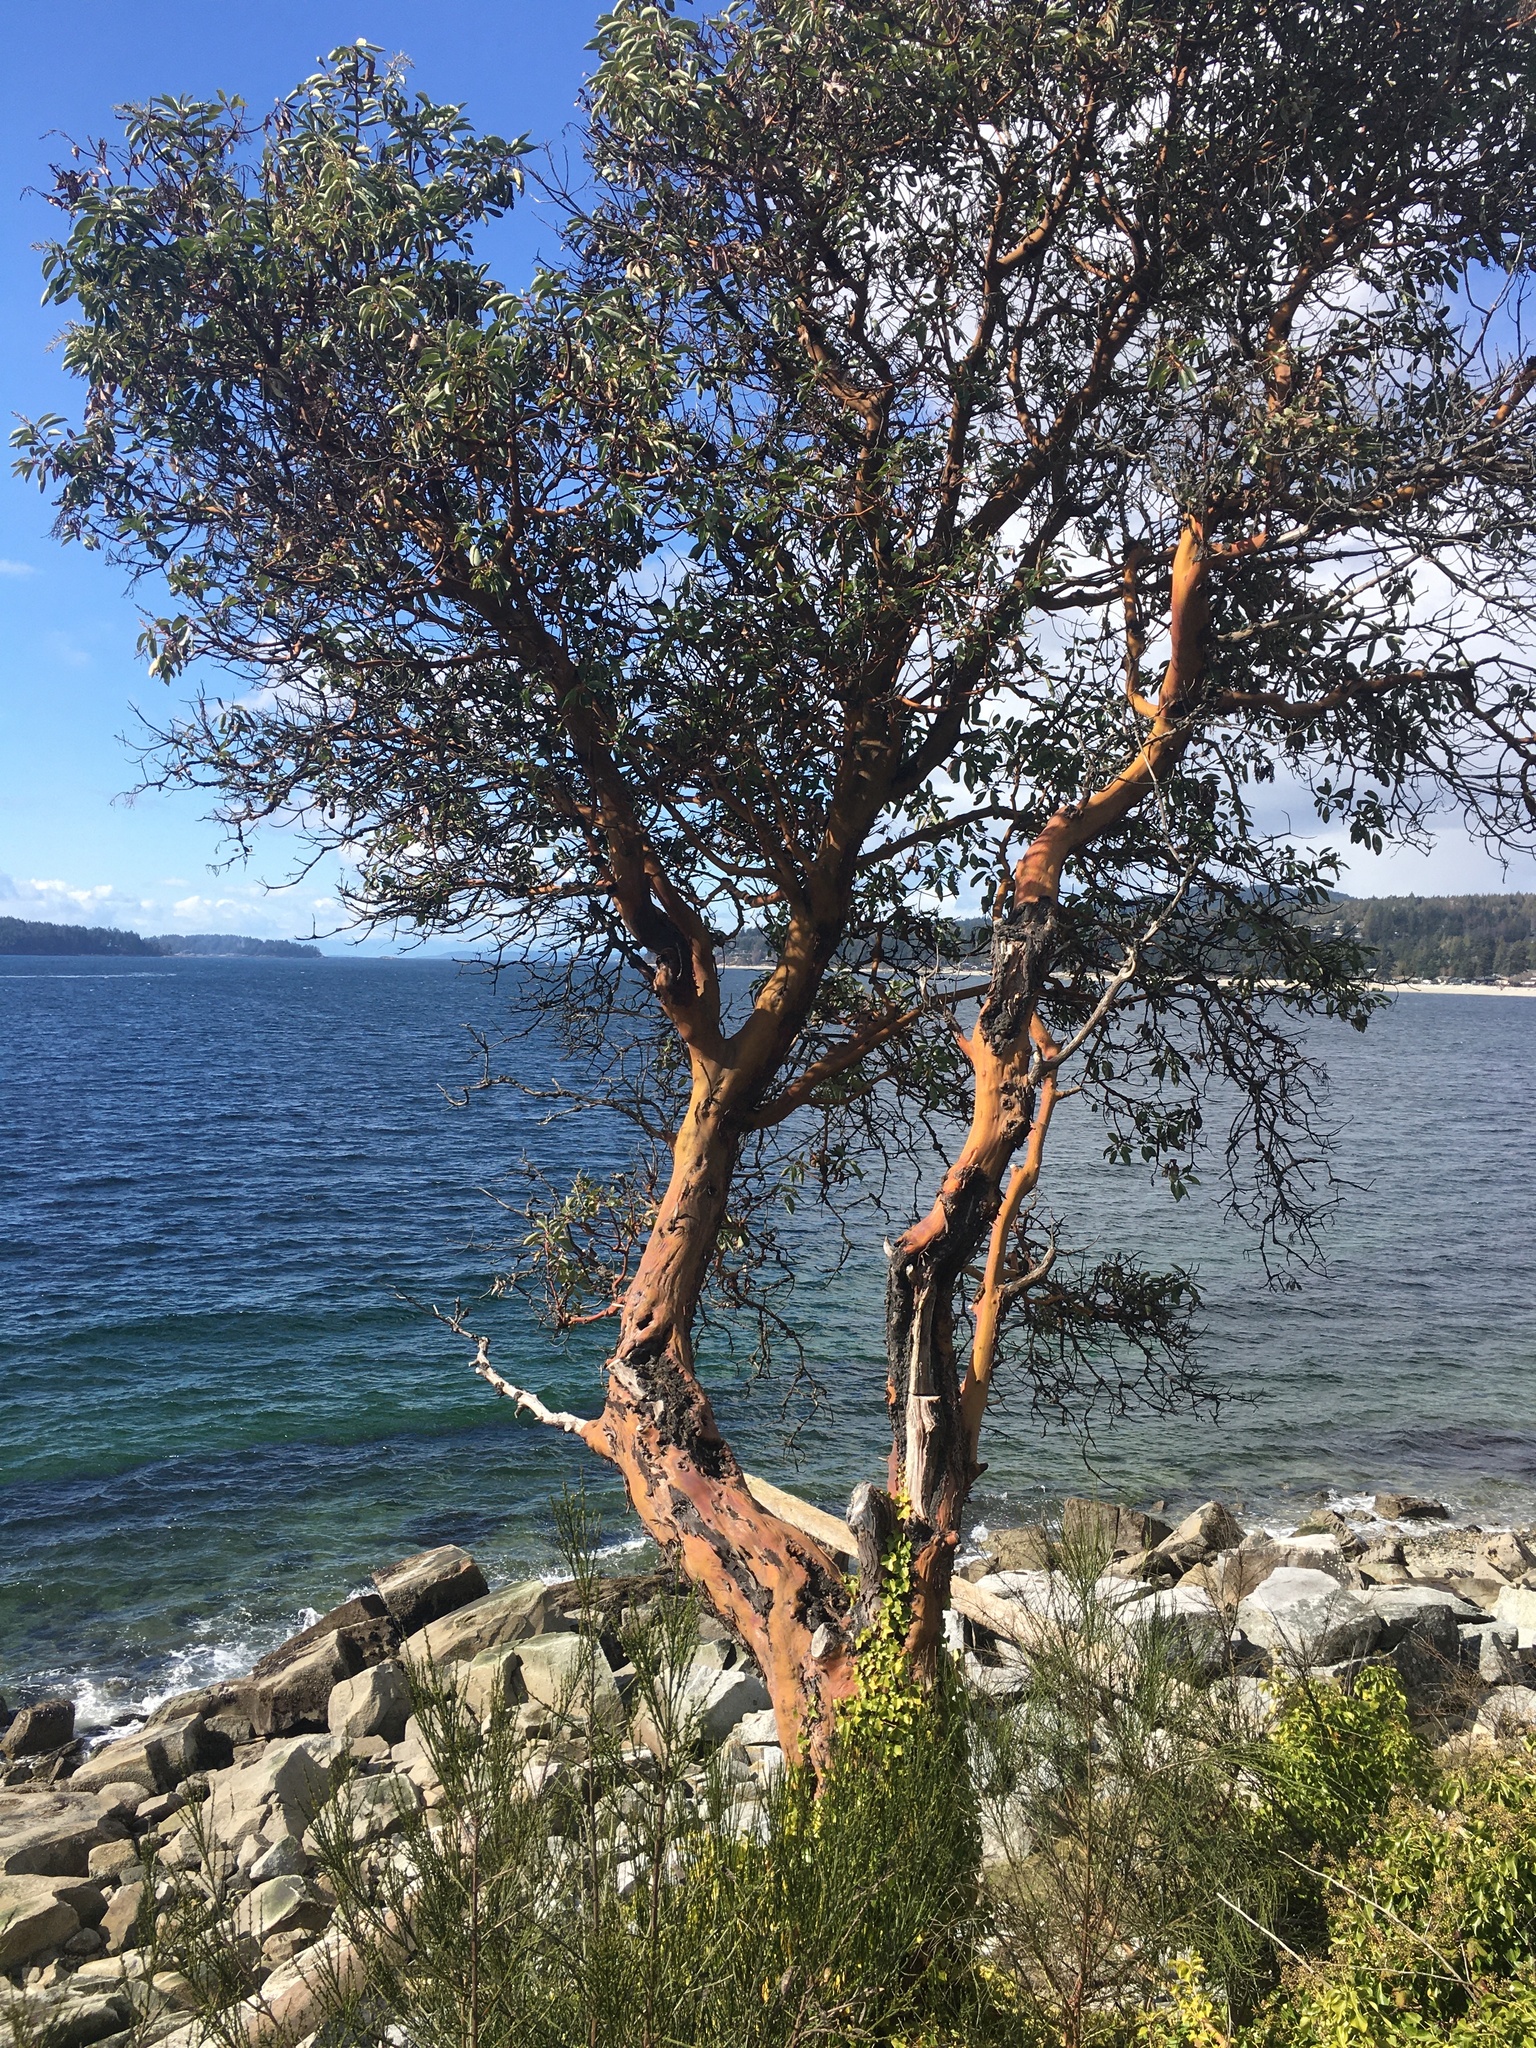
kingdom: Plantae
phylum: Tracheophyta
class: Magnoliopsida
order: Ericales
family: Ericaceae
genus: Arbutus
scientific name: Arbutus menziesii
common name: Pacific madrone
